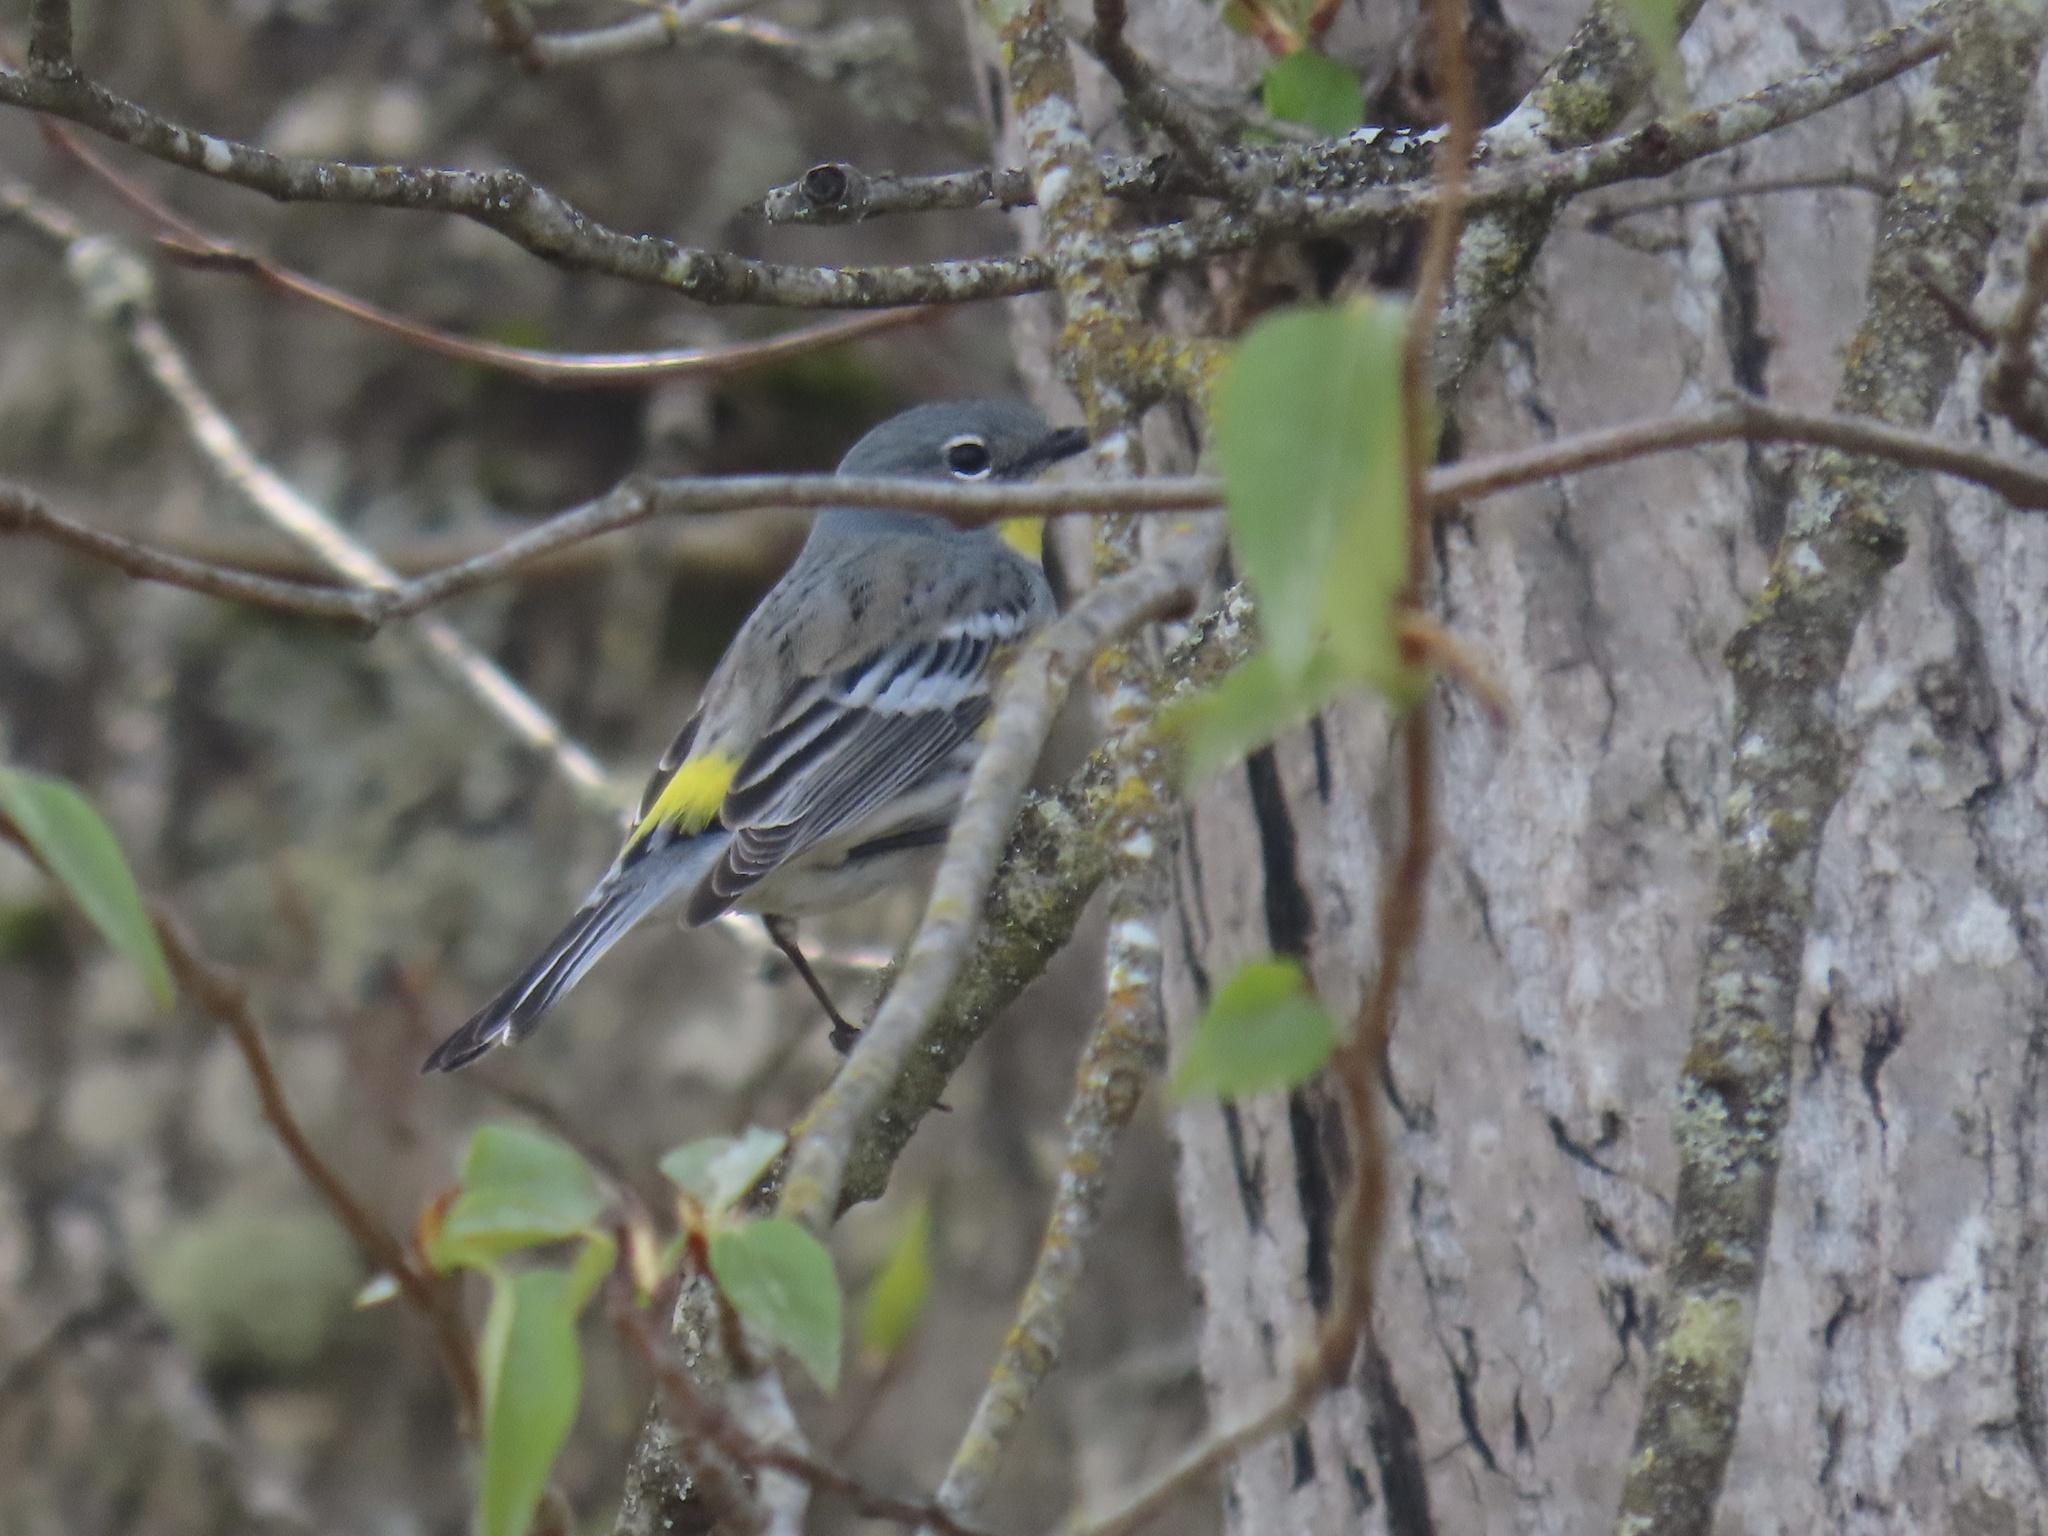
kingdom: Animalia
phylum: Chordata
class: Aves
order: Passeriformes
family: Parulidae
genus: Setophaga
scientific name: Setophaga coronata
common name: Myrtle warbler
